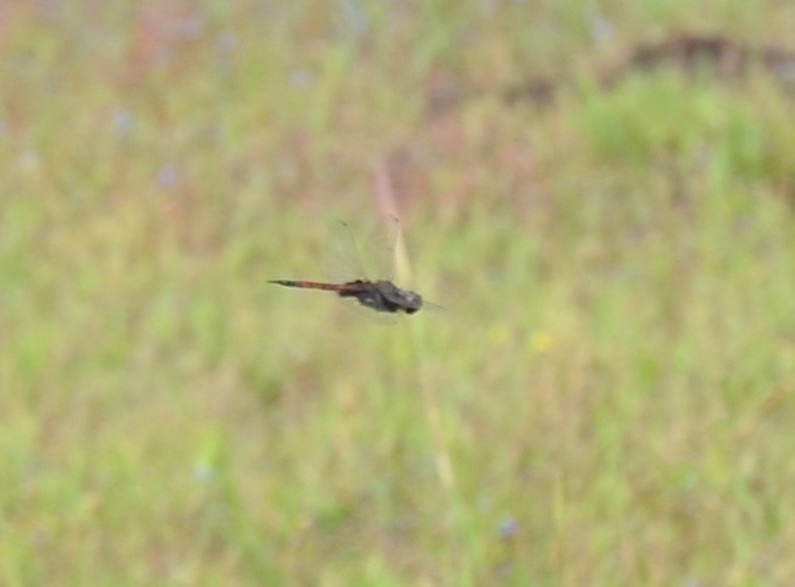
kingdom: Animalia
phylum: Arthropoda
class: Insecta
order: Odonata
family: Libellulidae
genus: Tramea
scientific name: Tramea limbata
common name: Ferruginous glider
